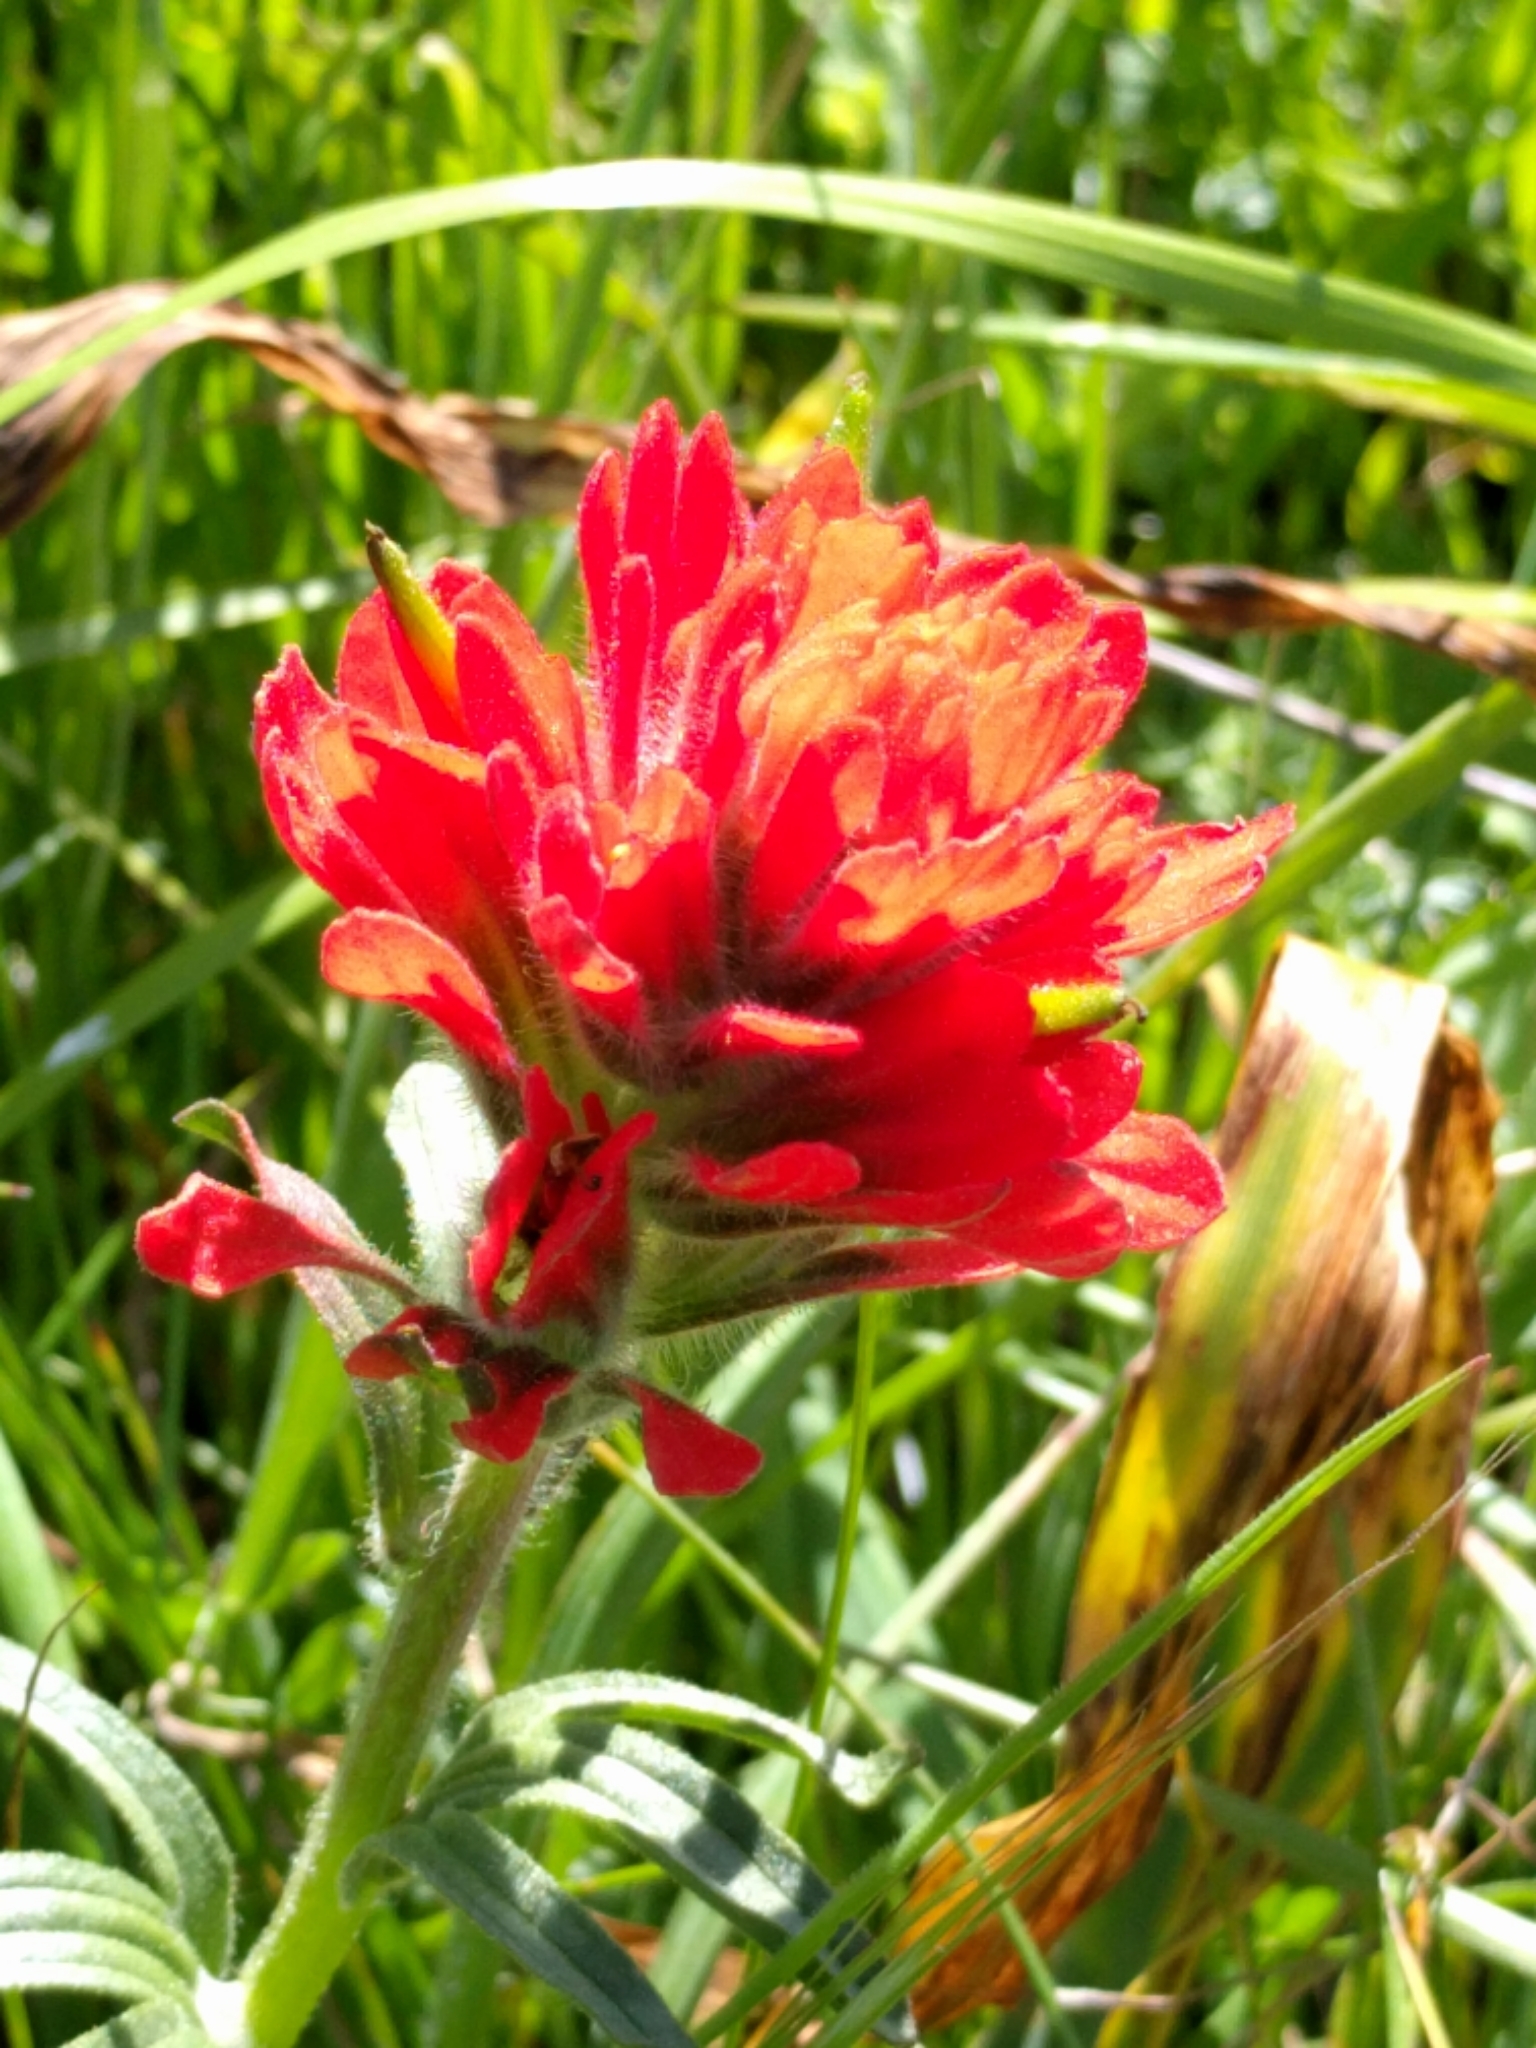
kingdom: Plantae
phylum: Tracheophyta
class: Magnoliopsida
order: Lamiales
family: Orobanchaceae
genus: Castilleja
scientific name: Castilleja affinis
